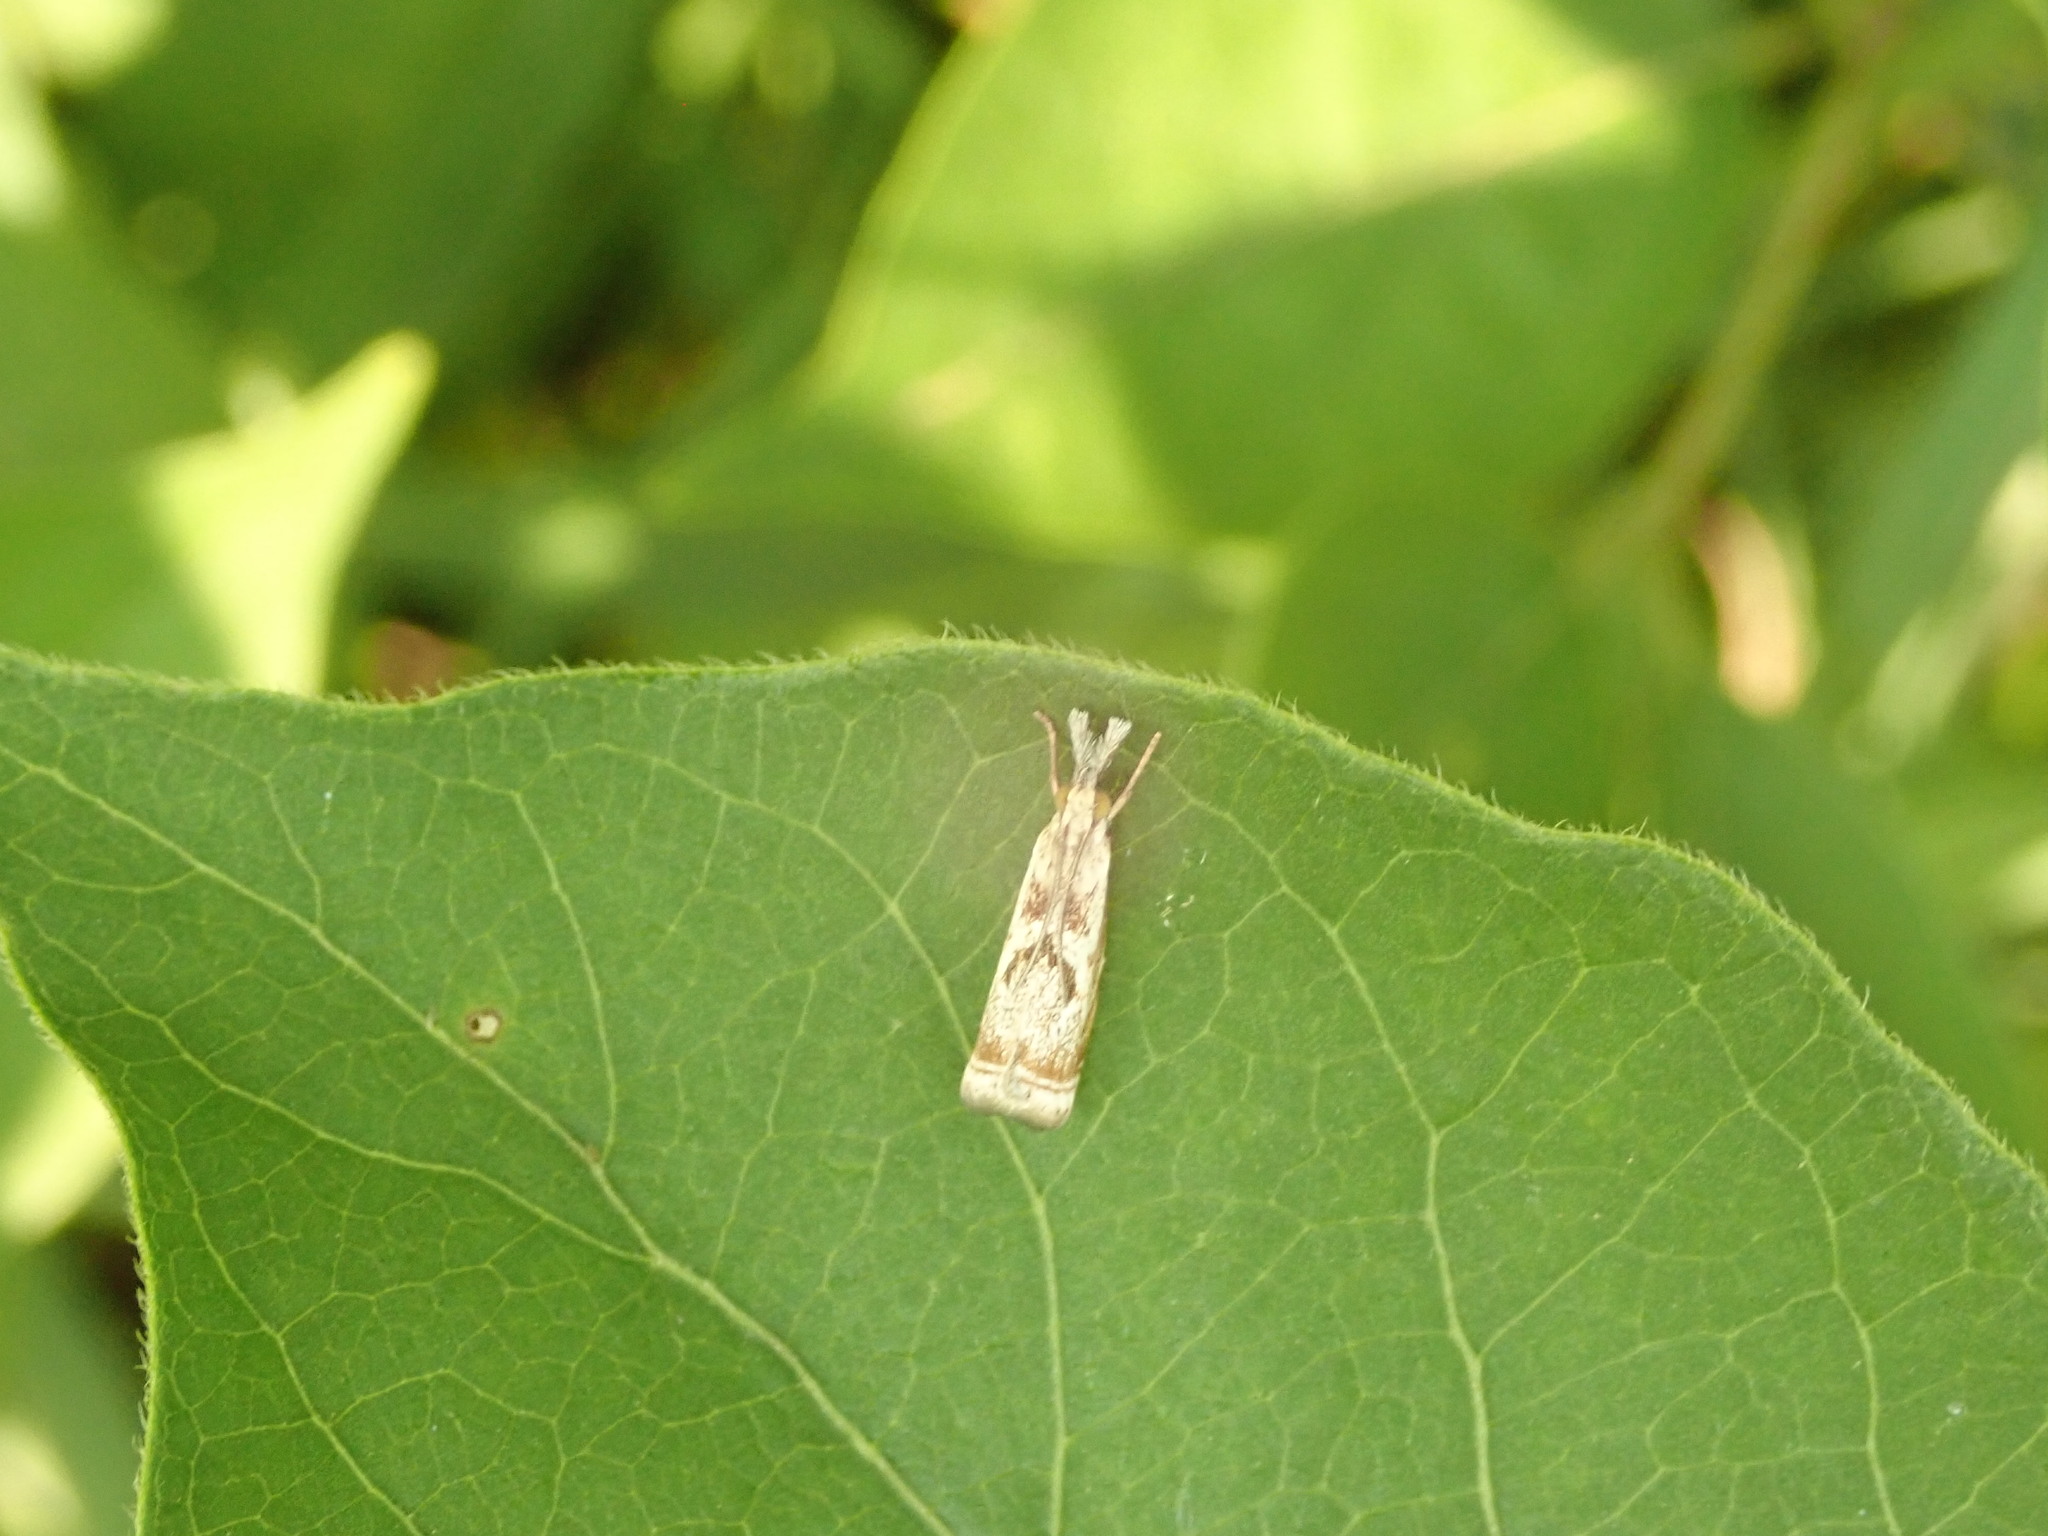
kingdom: Animalia
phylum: Arthropoda
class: Insecta
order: Lepidoptera
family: Crambidae
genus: Microcrambus
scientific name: Microcrambus elegans
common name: Elegant grass-veneer
